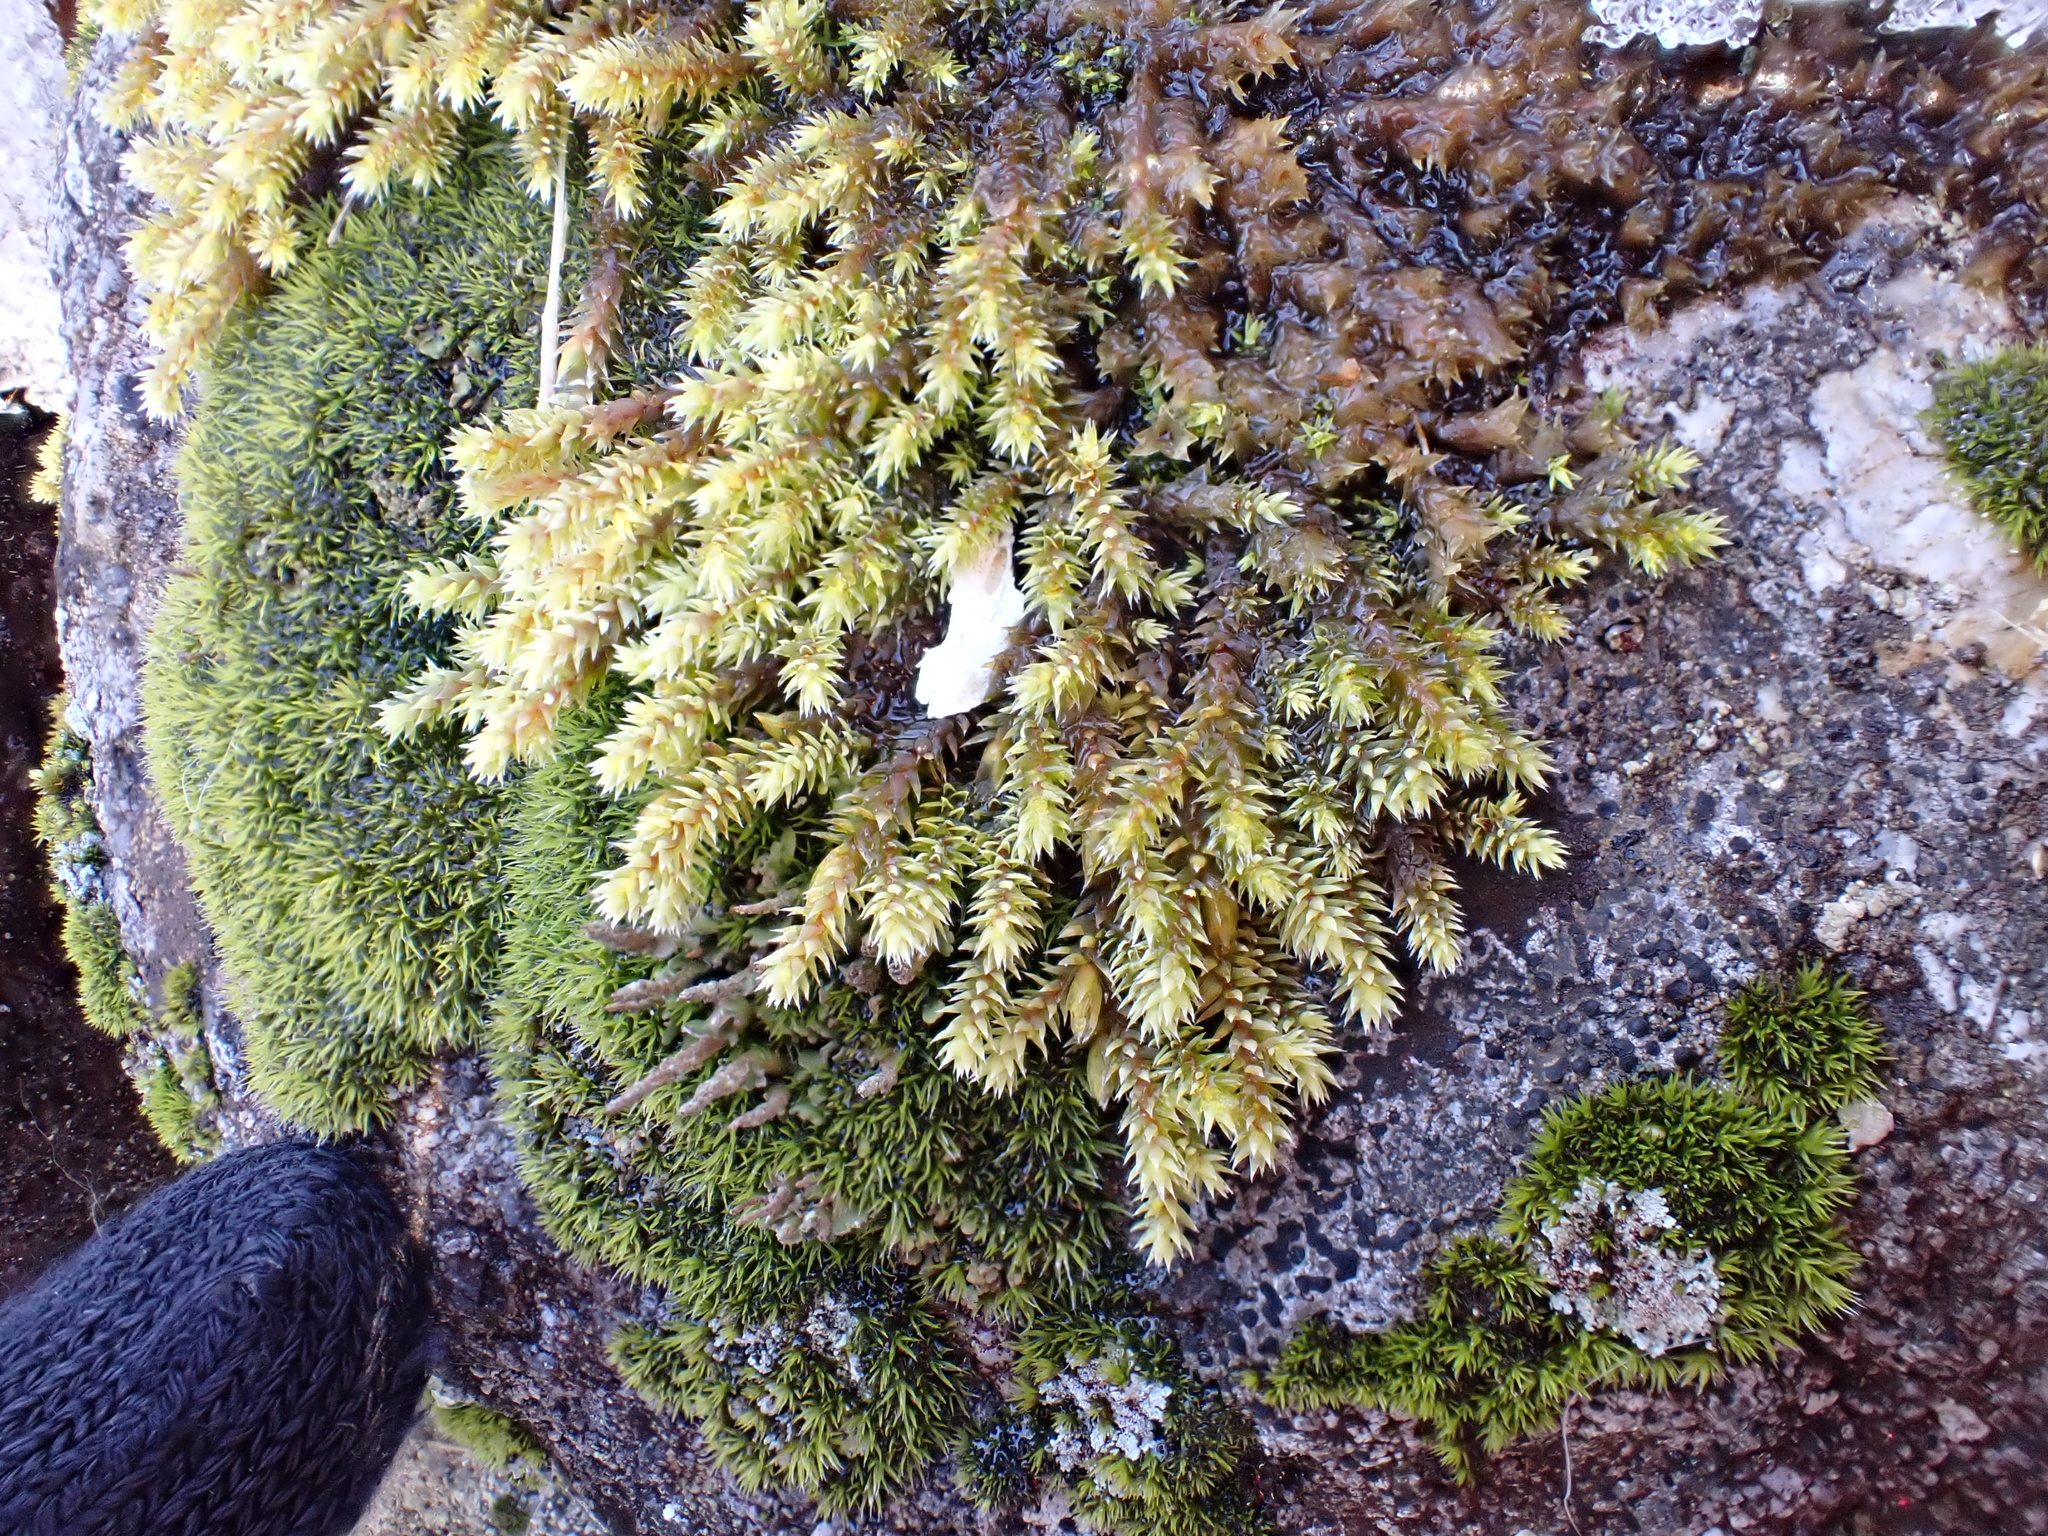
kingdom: Plantae
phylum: Bryophyta
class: Bryopsida
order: Hedwigiales
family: Hedwigiaceae
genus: Hedwigia
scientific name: Hedwigia ciliata
